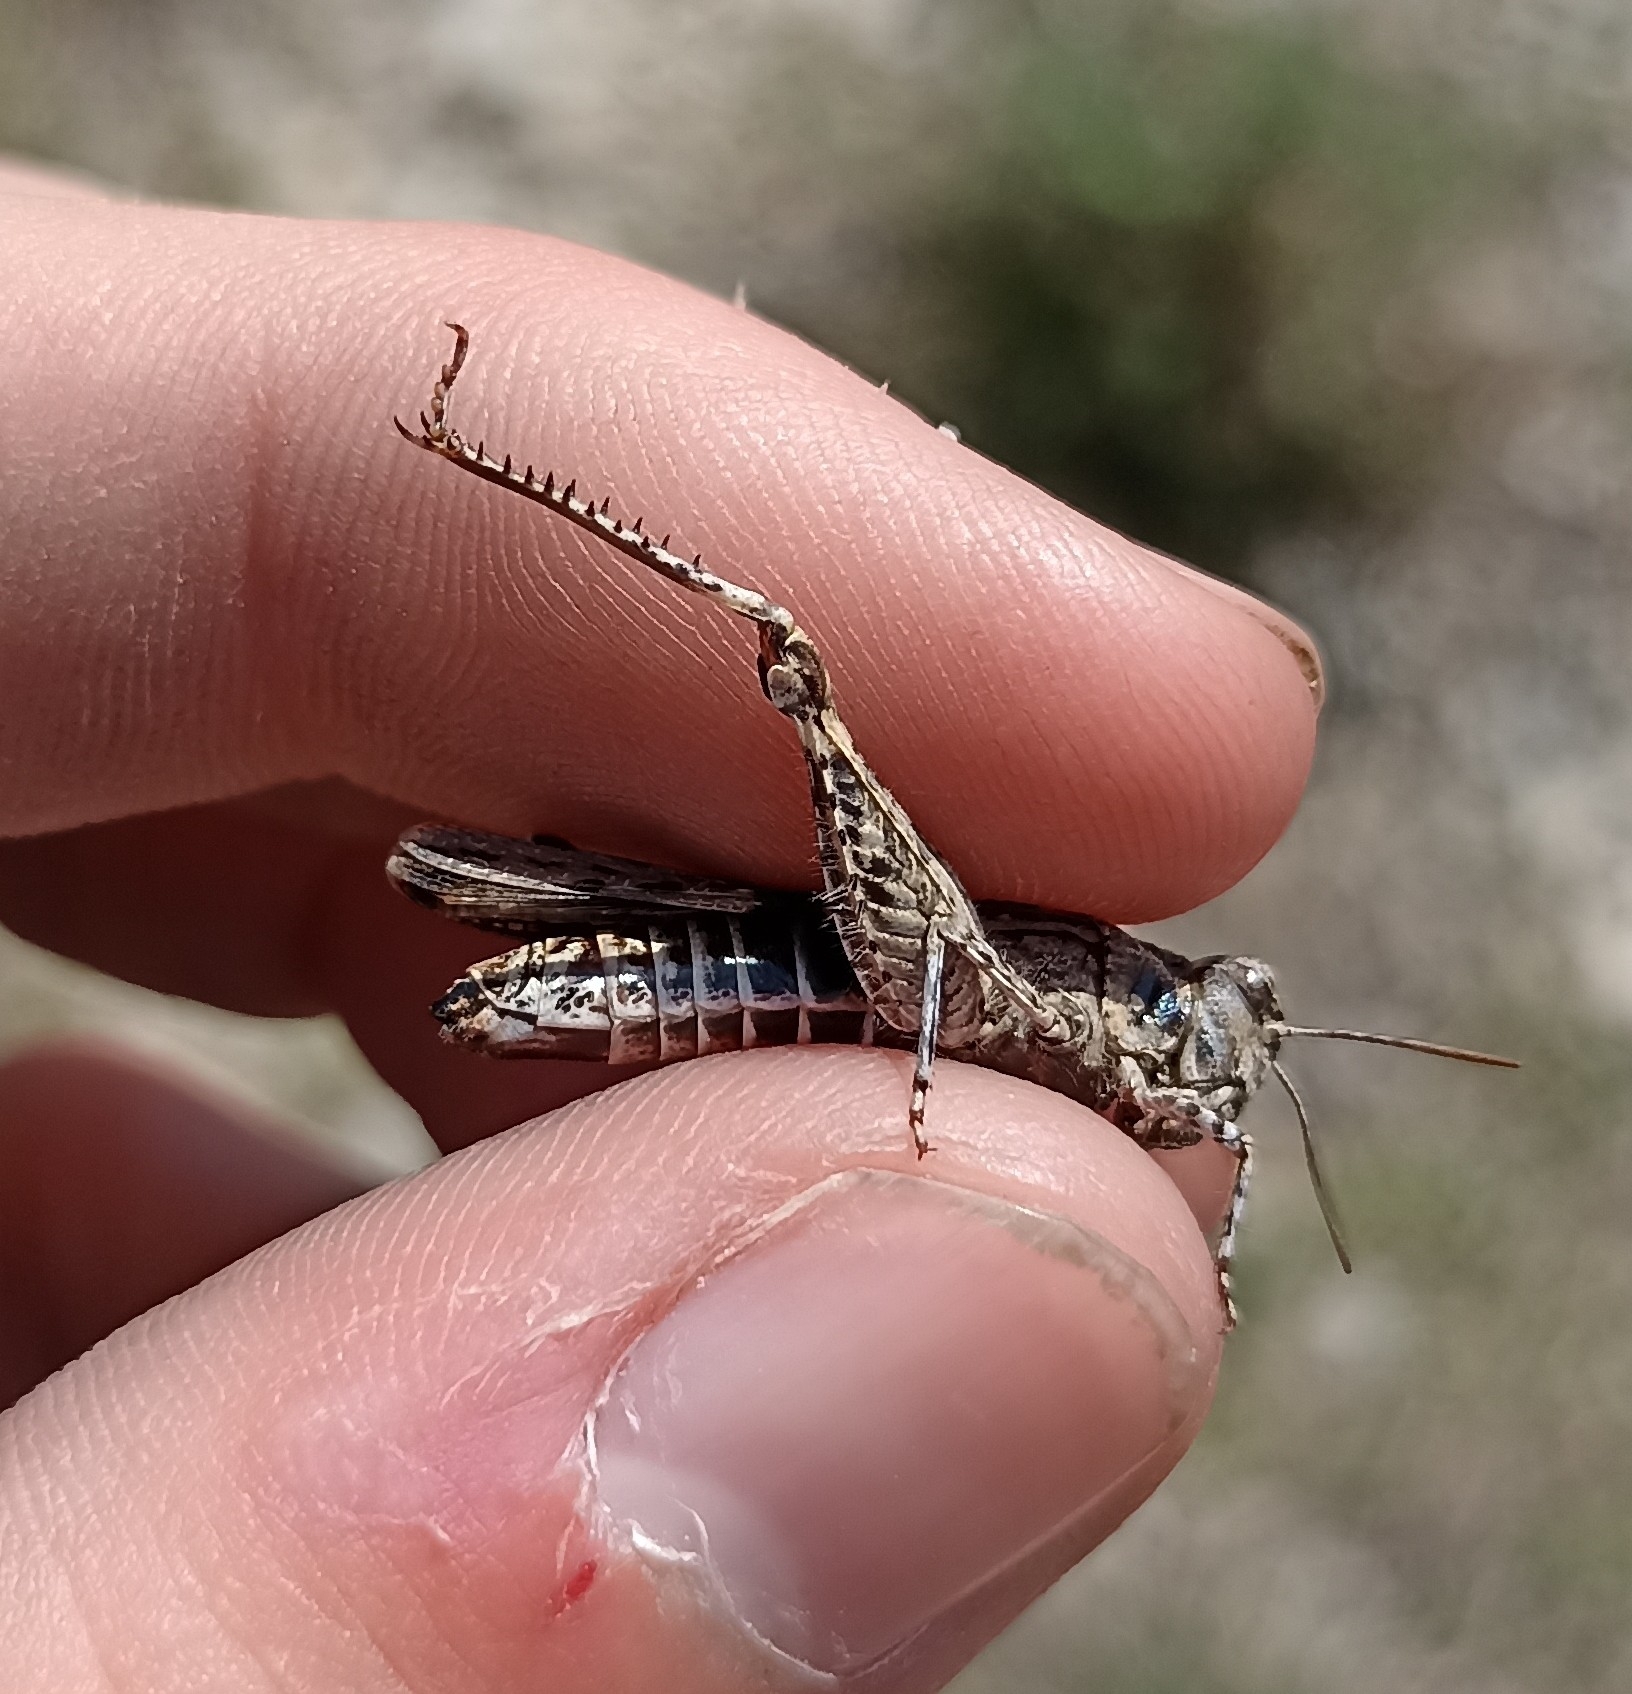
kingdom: Animalia
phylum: Arthropoda
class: Insecta
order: Orthoptera
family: Acrididae
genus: Acrotylus
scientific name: Acrotylus fischeri
